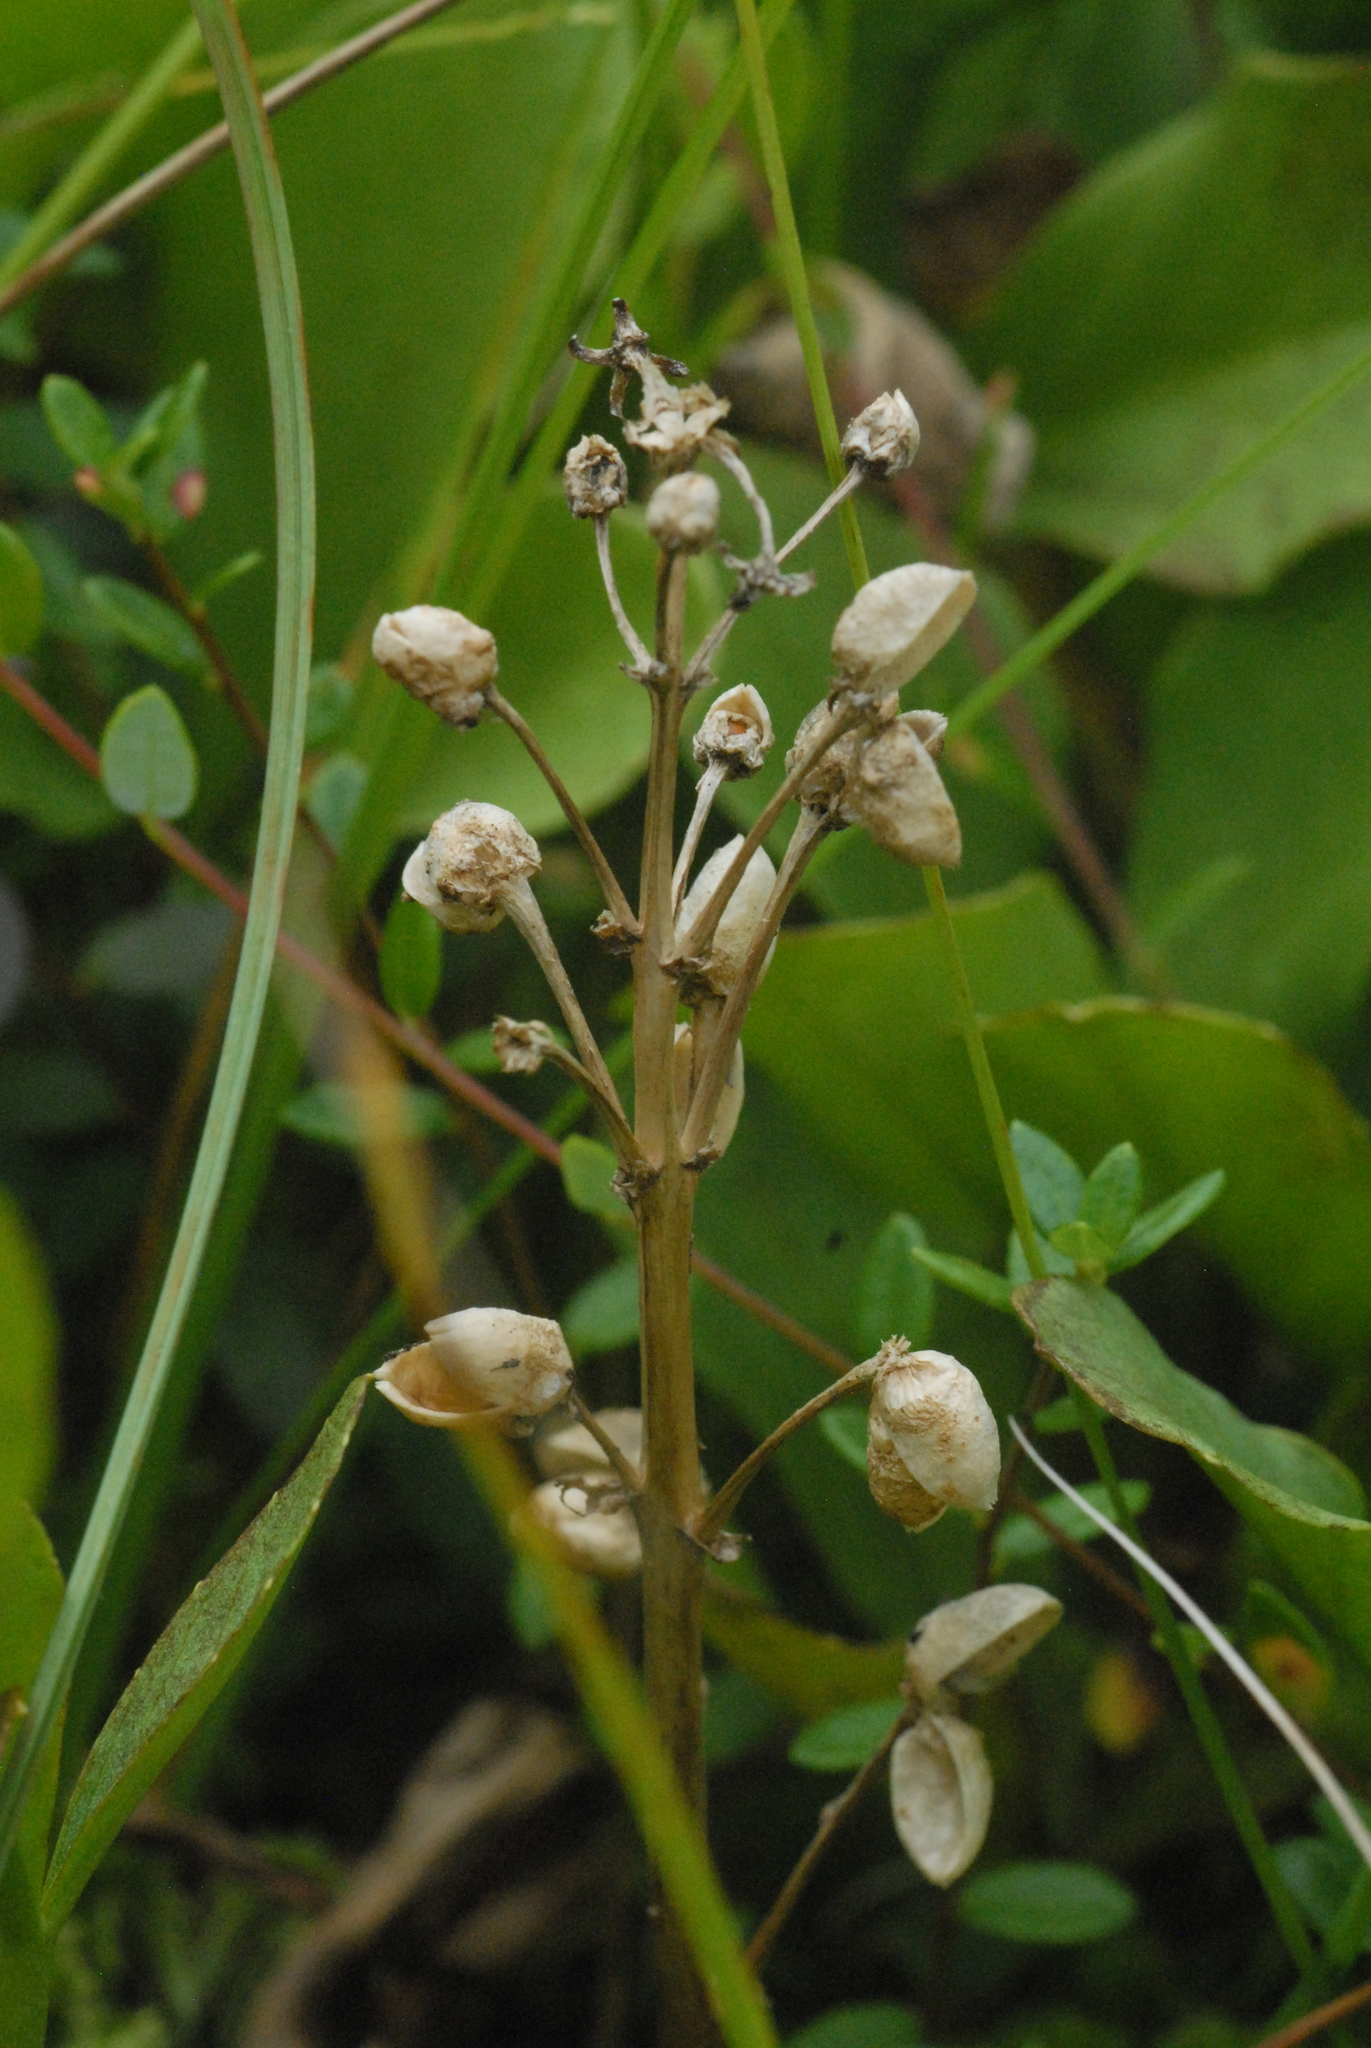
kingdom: Plantae
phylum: Tracheophyta
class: Magnoliopsida
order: Asterales
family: Menyanthaceae
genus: Menyanthes
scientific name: Menyanthes trifoliata
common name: Bogbean
